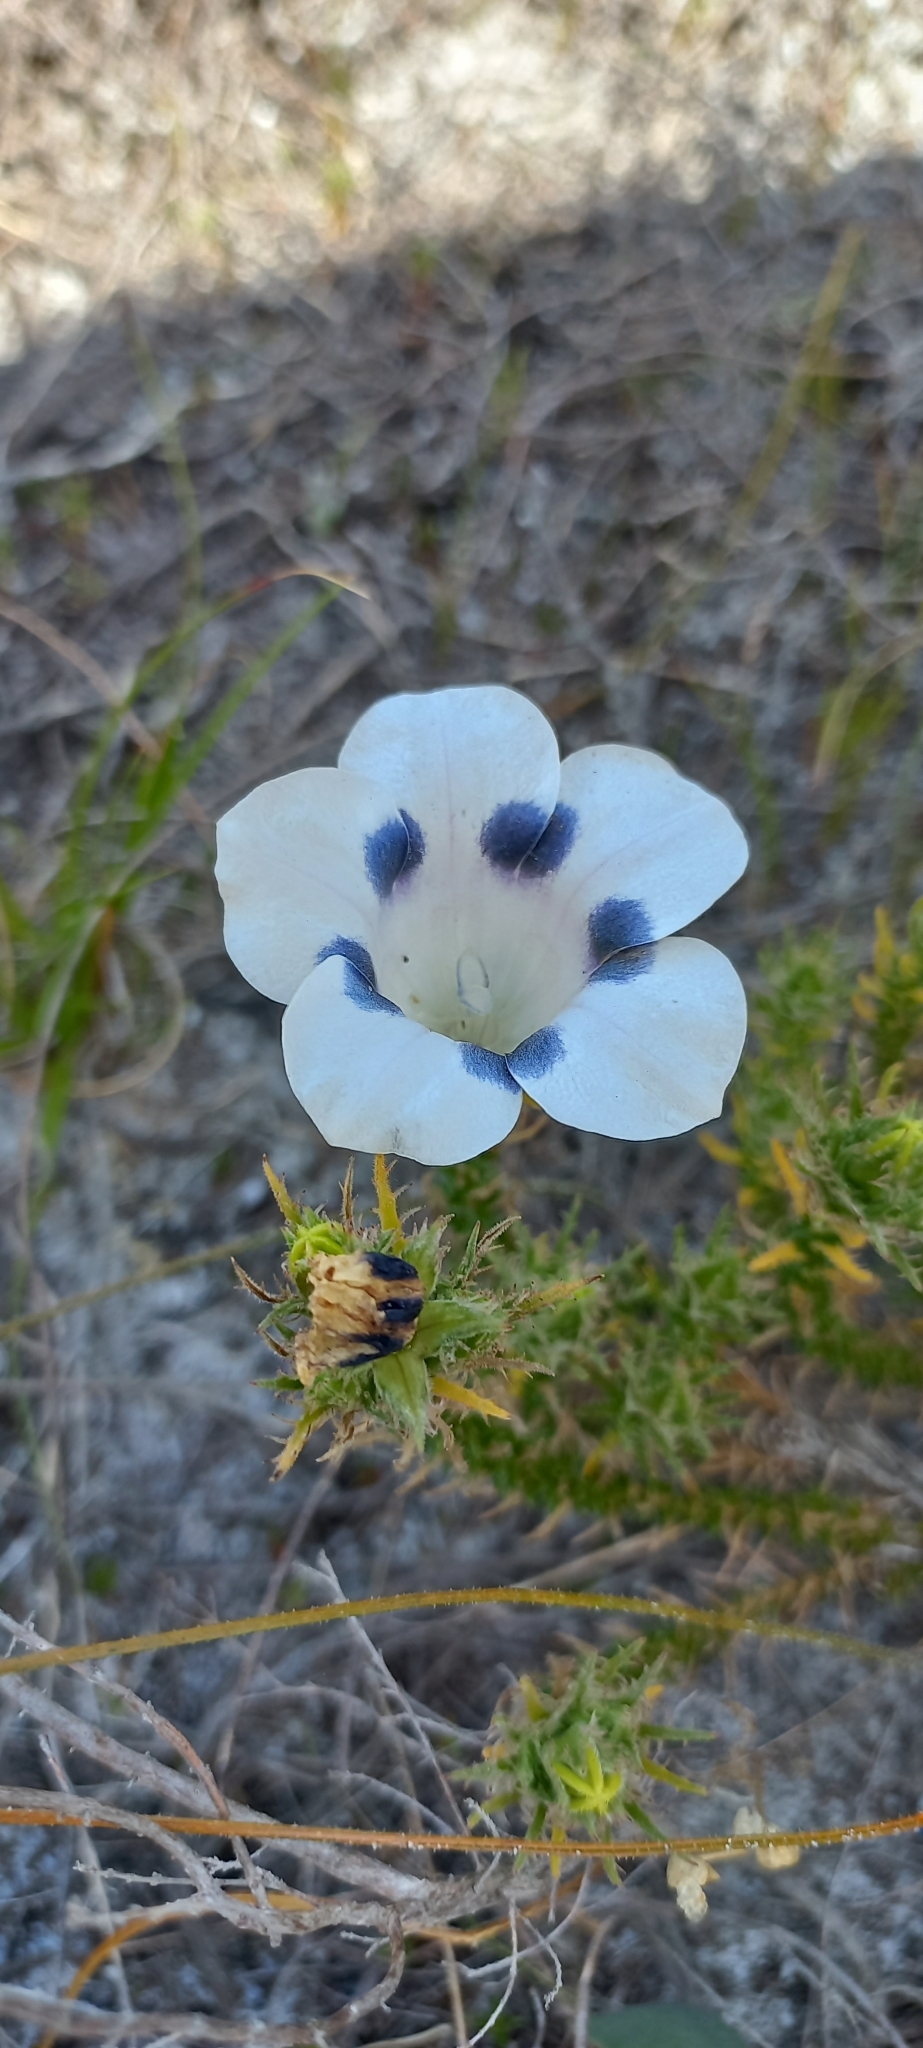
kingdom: Plantae
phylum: Tracheophyta
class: Magnoliopsida
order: Asterales
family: Campanulaceae
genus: Roella
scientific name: Roella maculata
